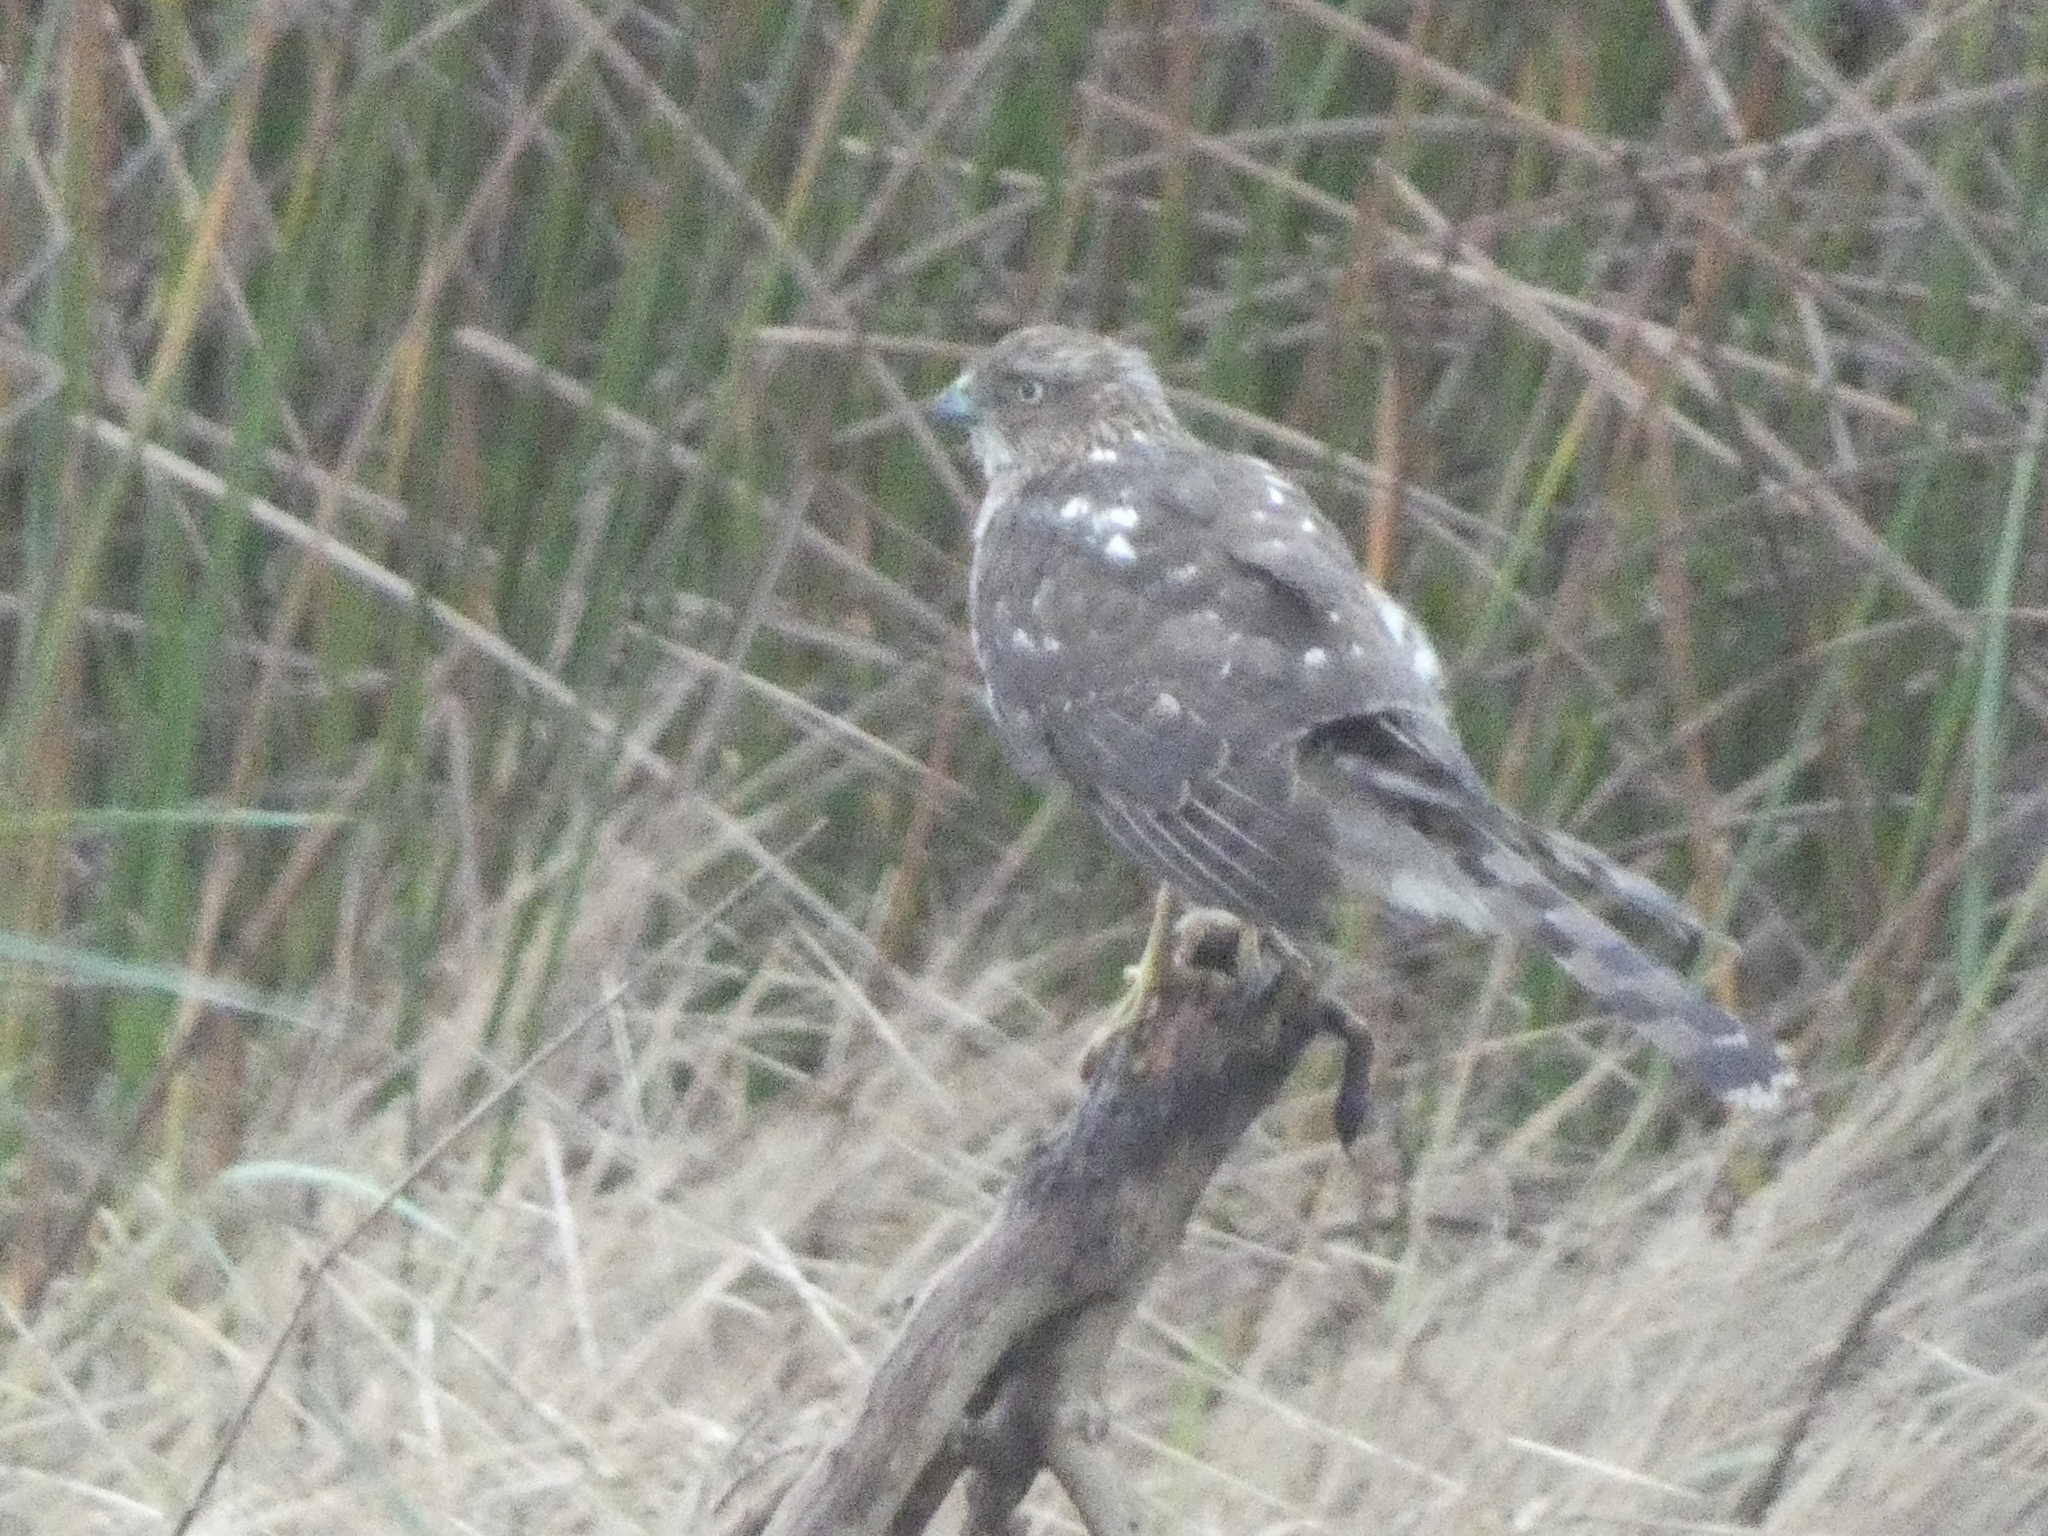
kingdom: Animalia
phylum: Chordata
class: Aves
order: Accipitriformes
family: Accipitridae
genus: Accipiter
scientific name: Accipiter cooperii
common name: Cooper's hawk
